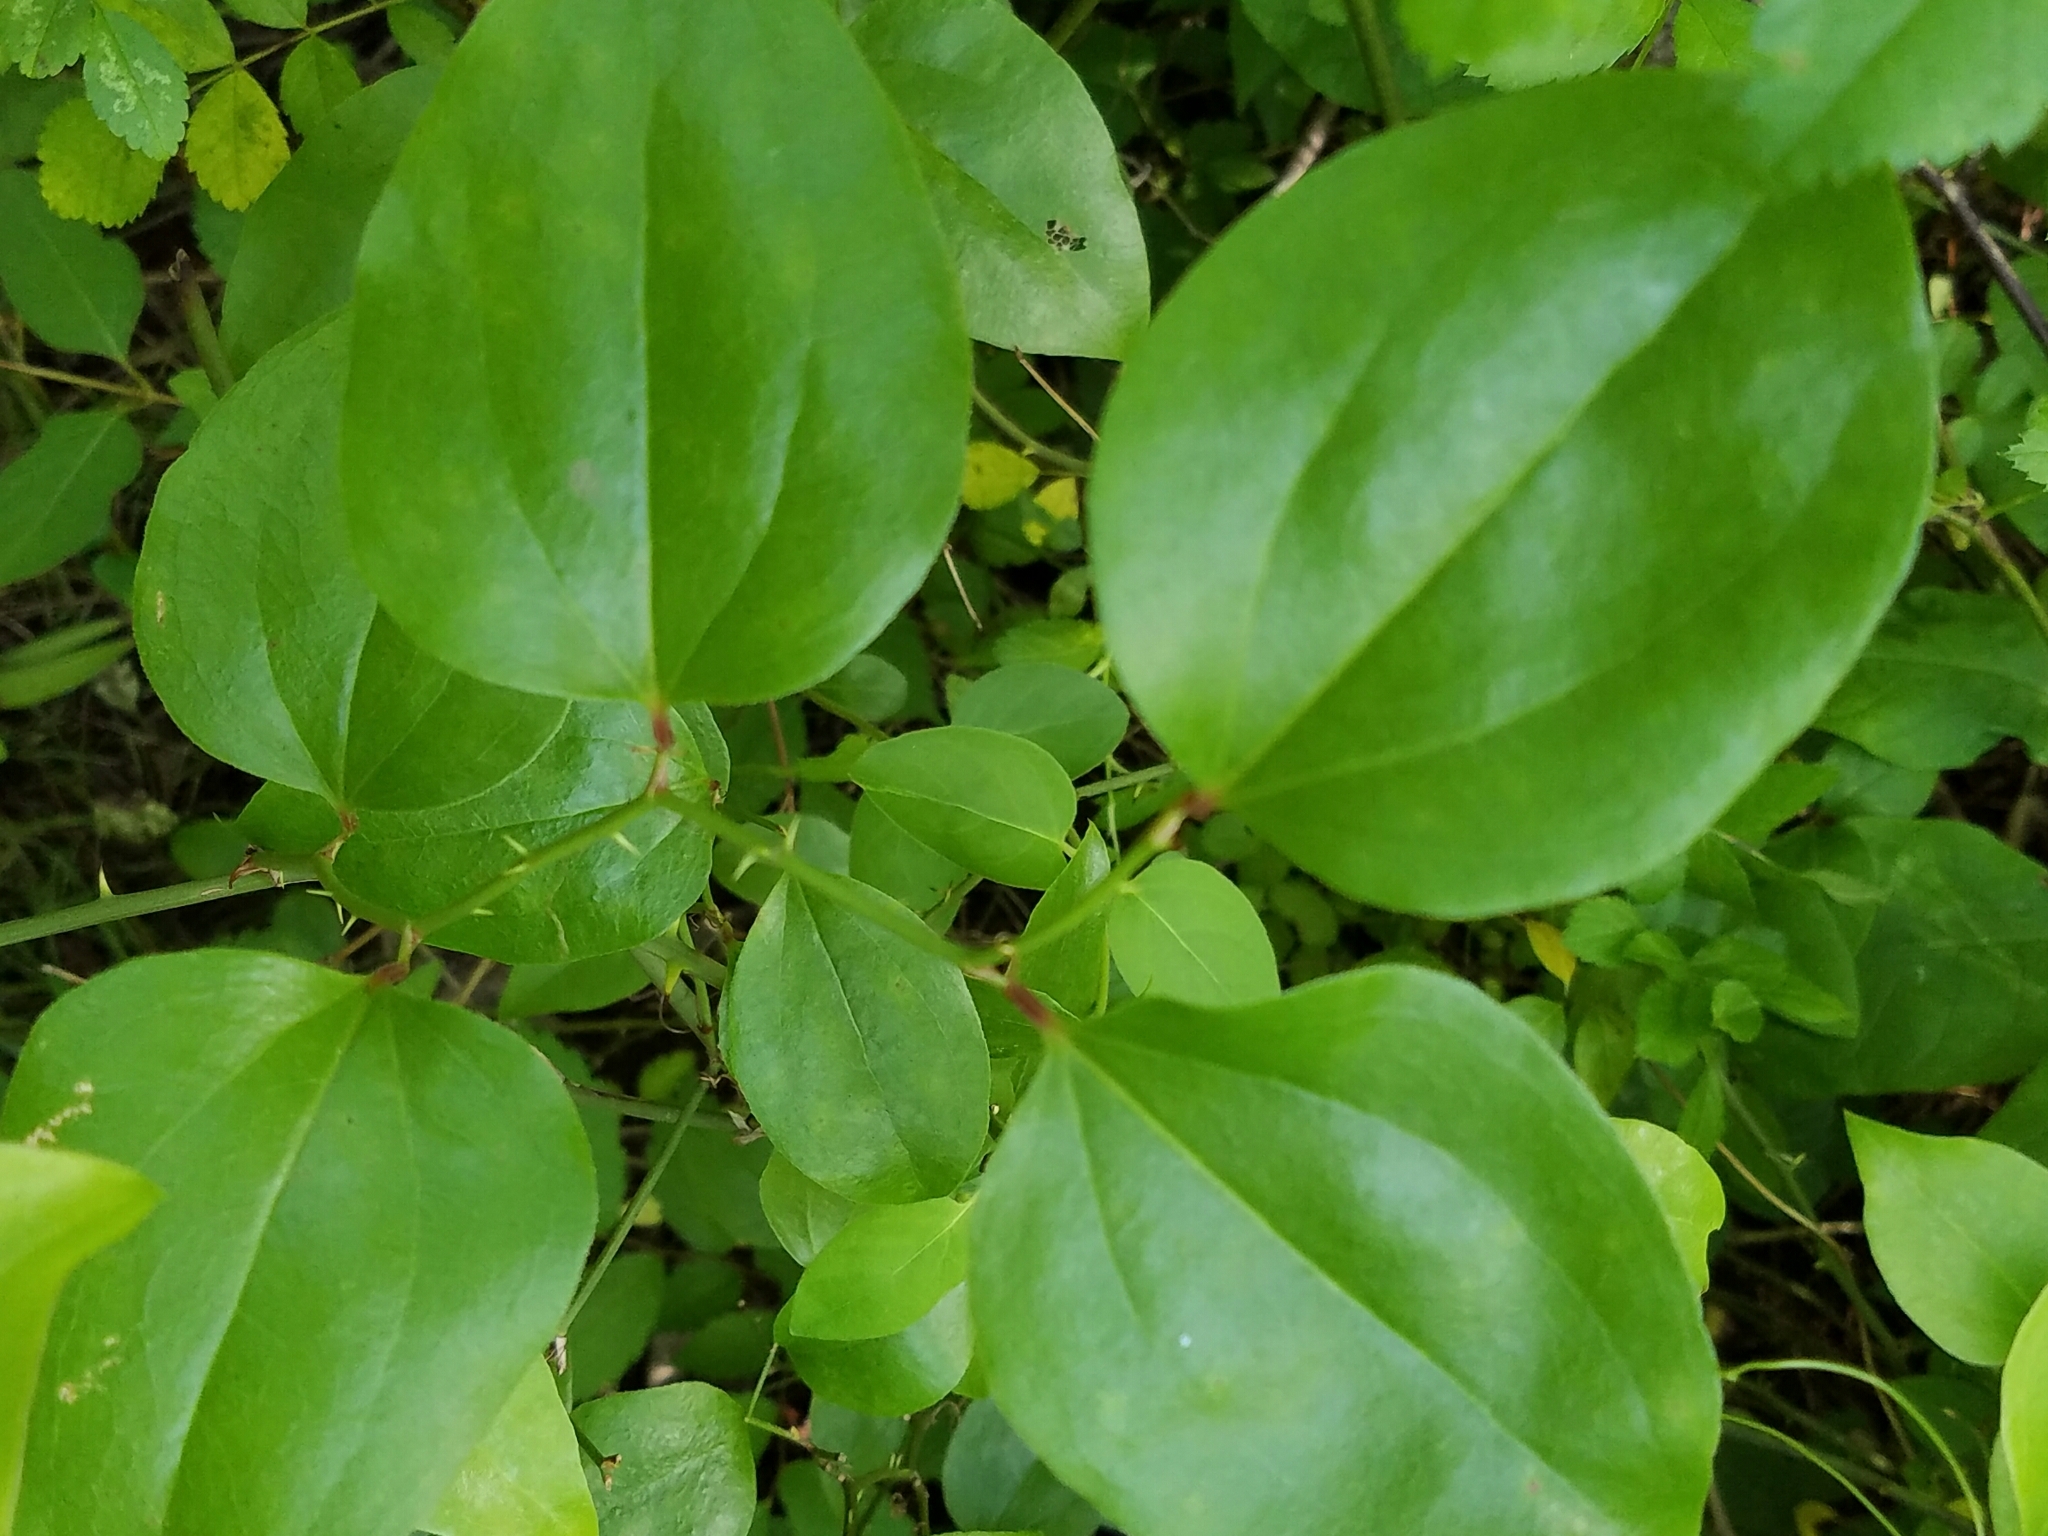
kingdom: Plantae
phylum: Tracheophyta
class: Liliopsida
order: Liliales
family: Smilacaceae
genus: Smilax
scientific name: Smilax rotundifolia
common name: Bullbriar
